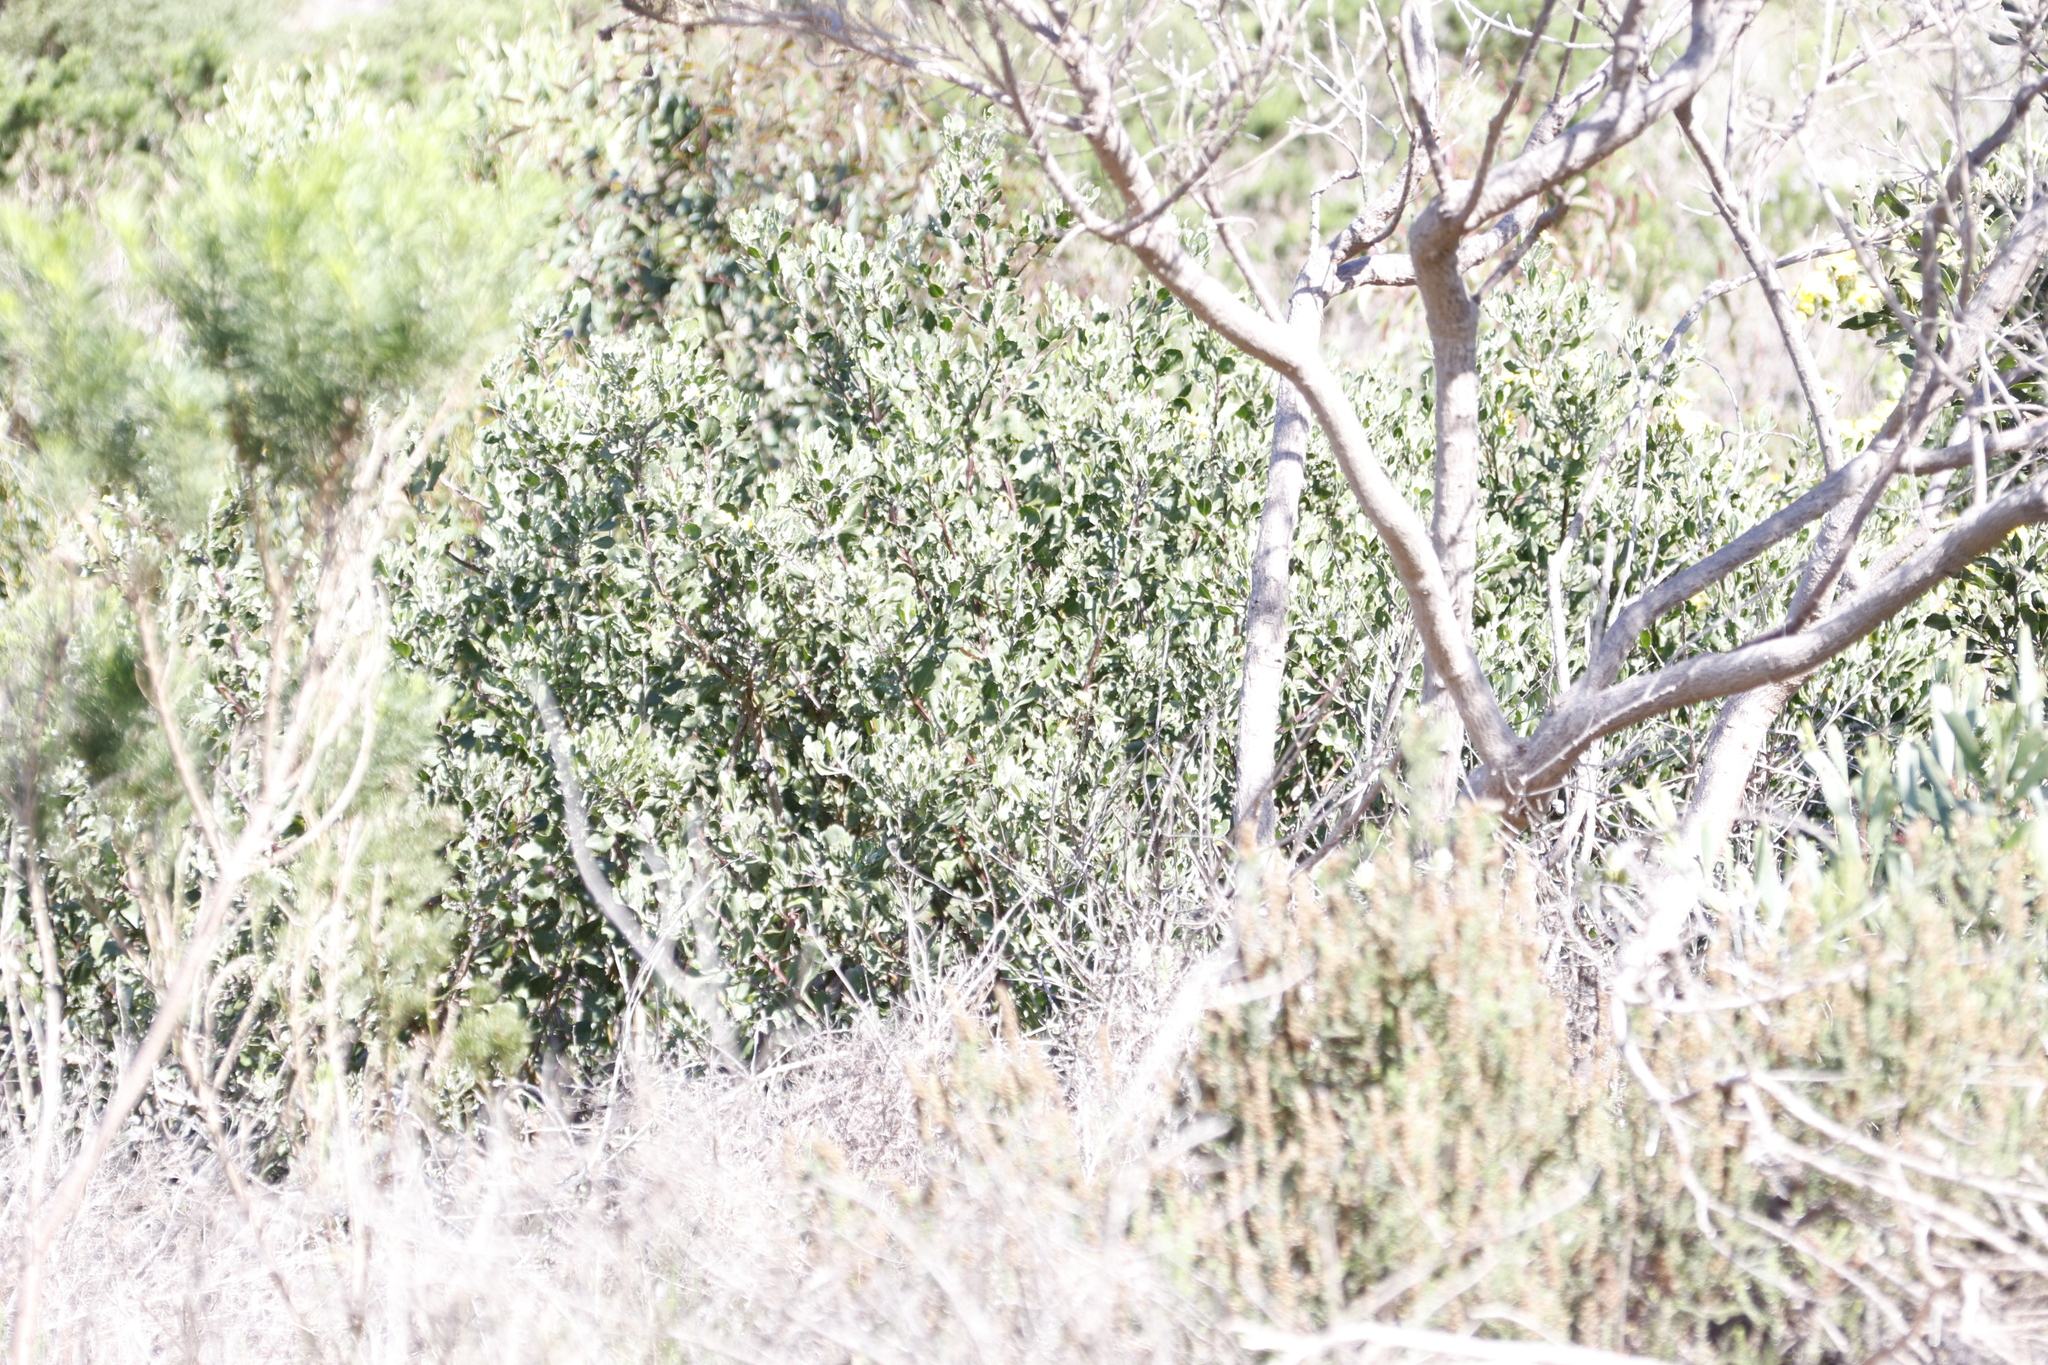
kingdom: Plantae
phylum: Tracheophyta
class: Magnoliopsida
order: Asterales
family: Asteraceae
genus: Osteospermum
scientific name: Osteospermum moniliferum
